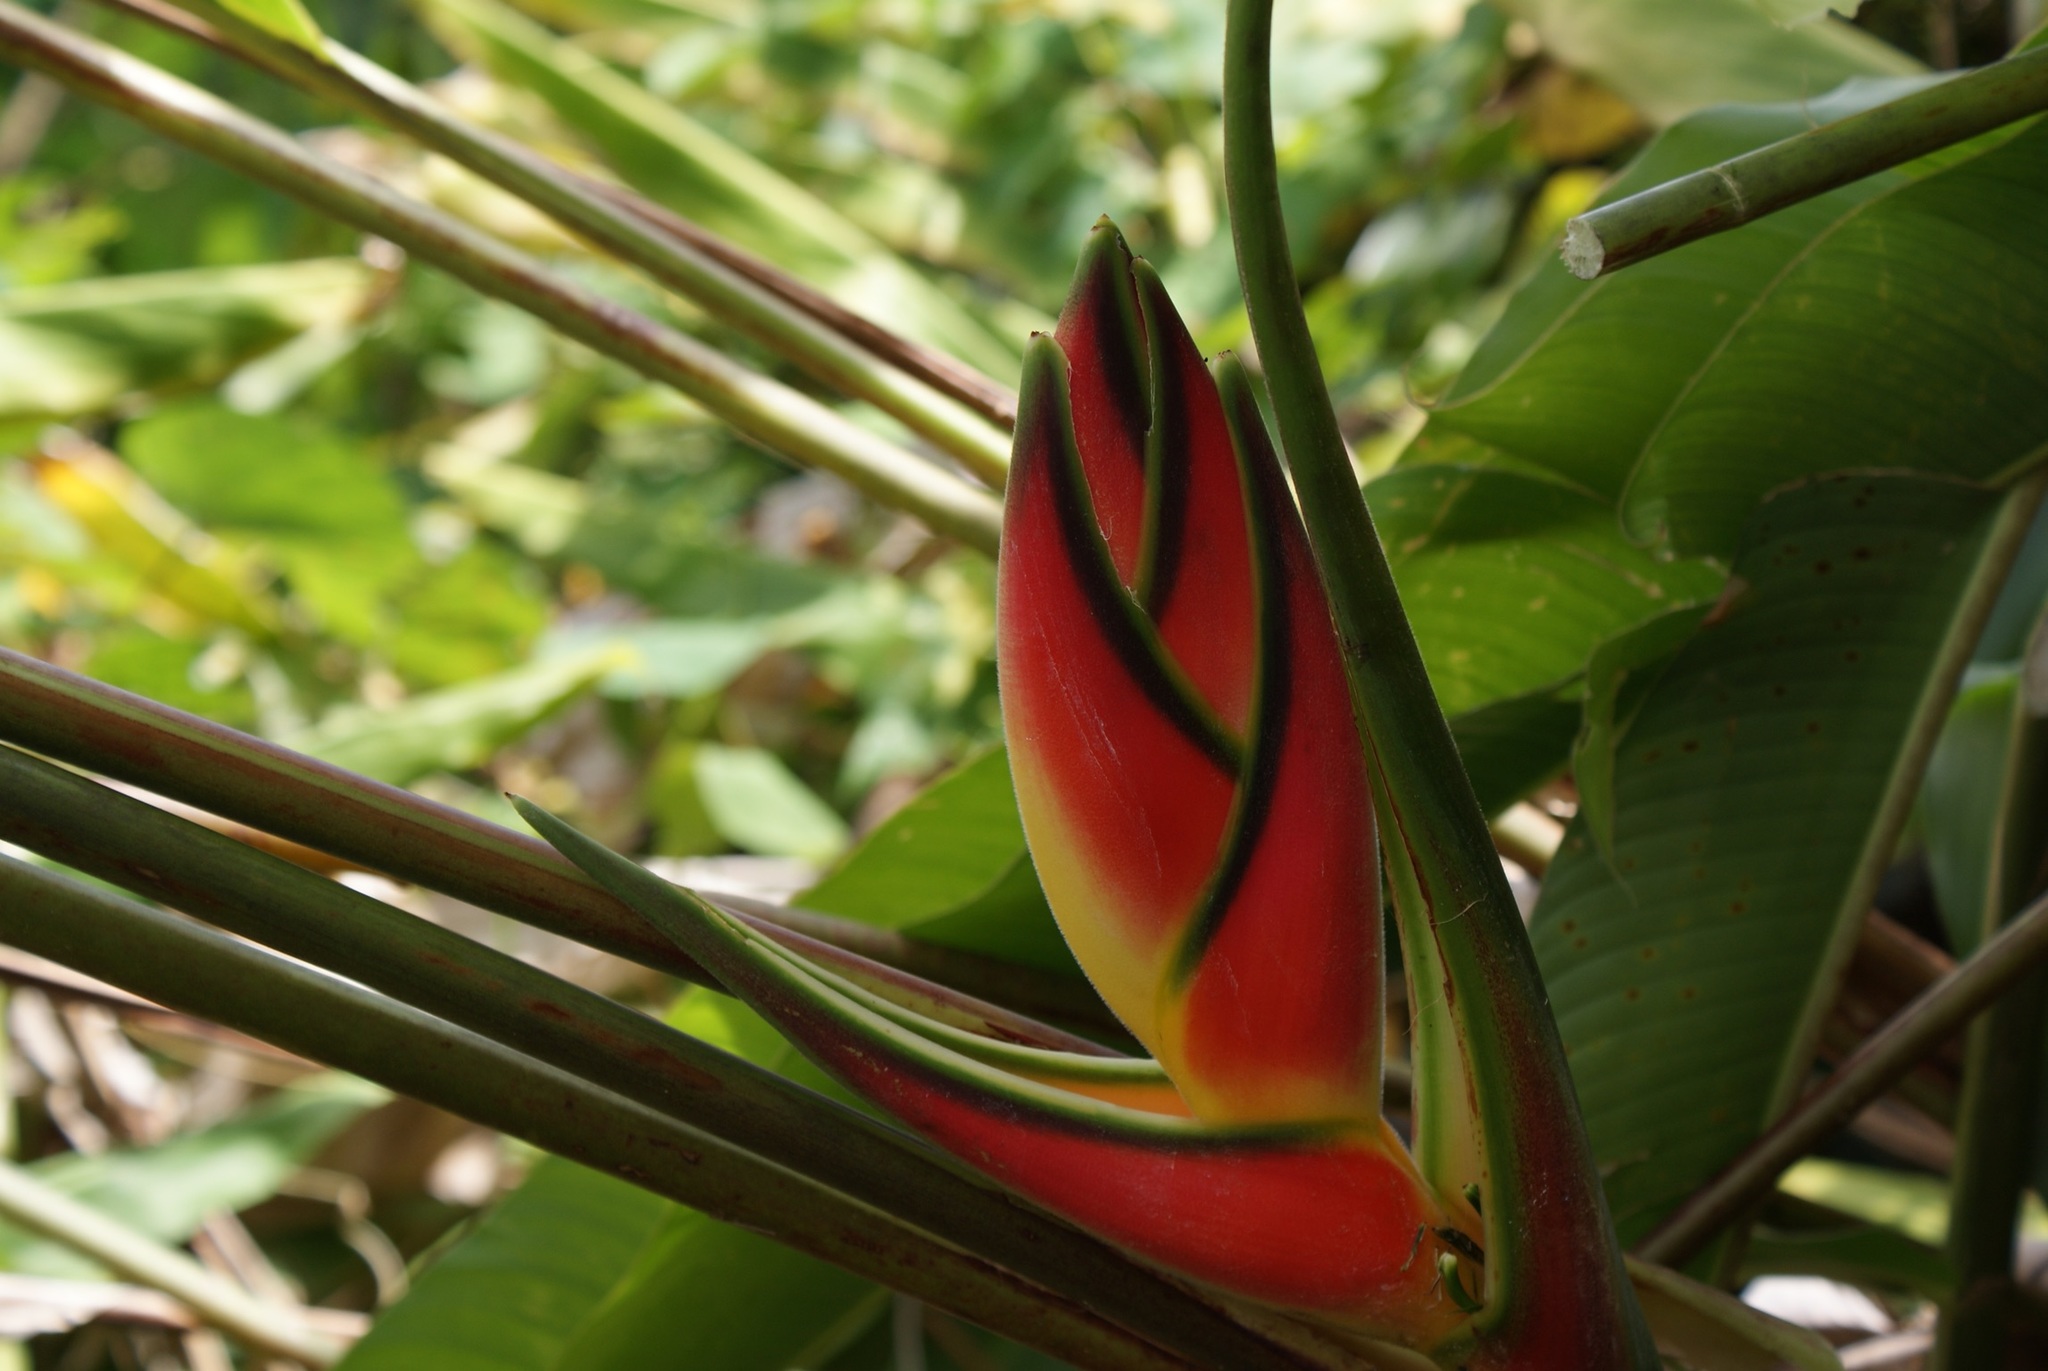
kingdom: Plantae
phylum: Tracheophyta
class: Liliopsida
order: Zingiberales
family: Heliconiaceae
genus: Heliconia
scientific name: Heliconia wagneriana
